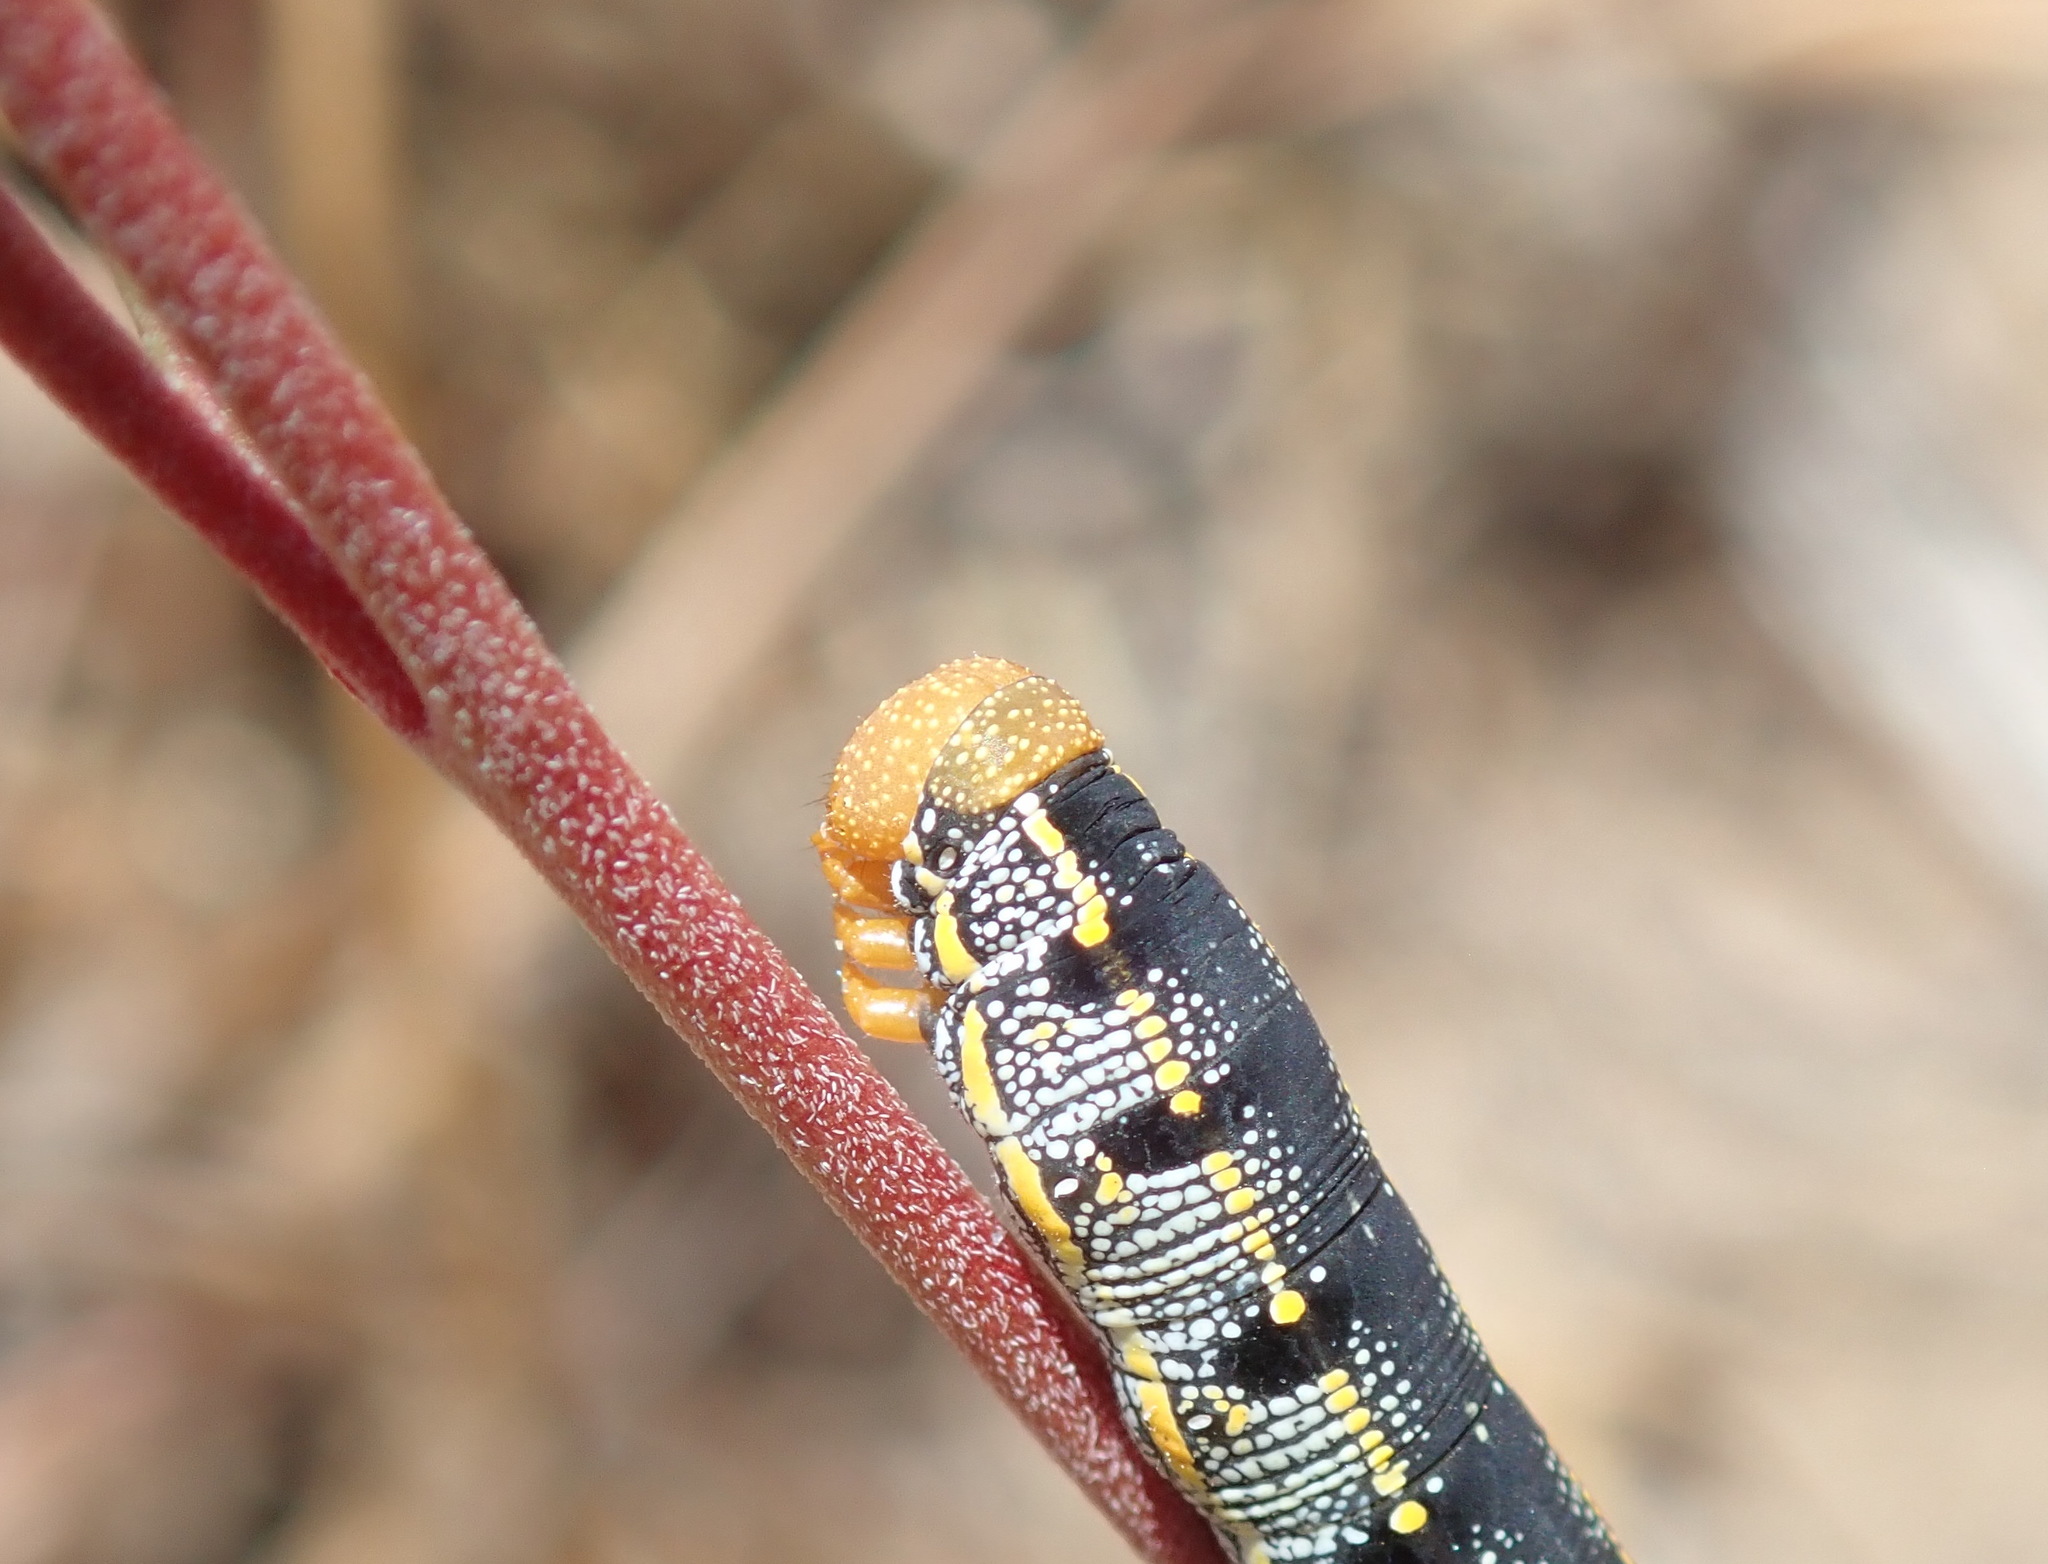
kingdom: Animalia
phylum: Arthropoda
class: Insecta
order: Lepidoptera
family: Sphingidae
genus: Hyles
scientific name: Hyles lineata
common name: White-lined sphinx
